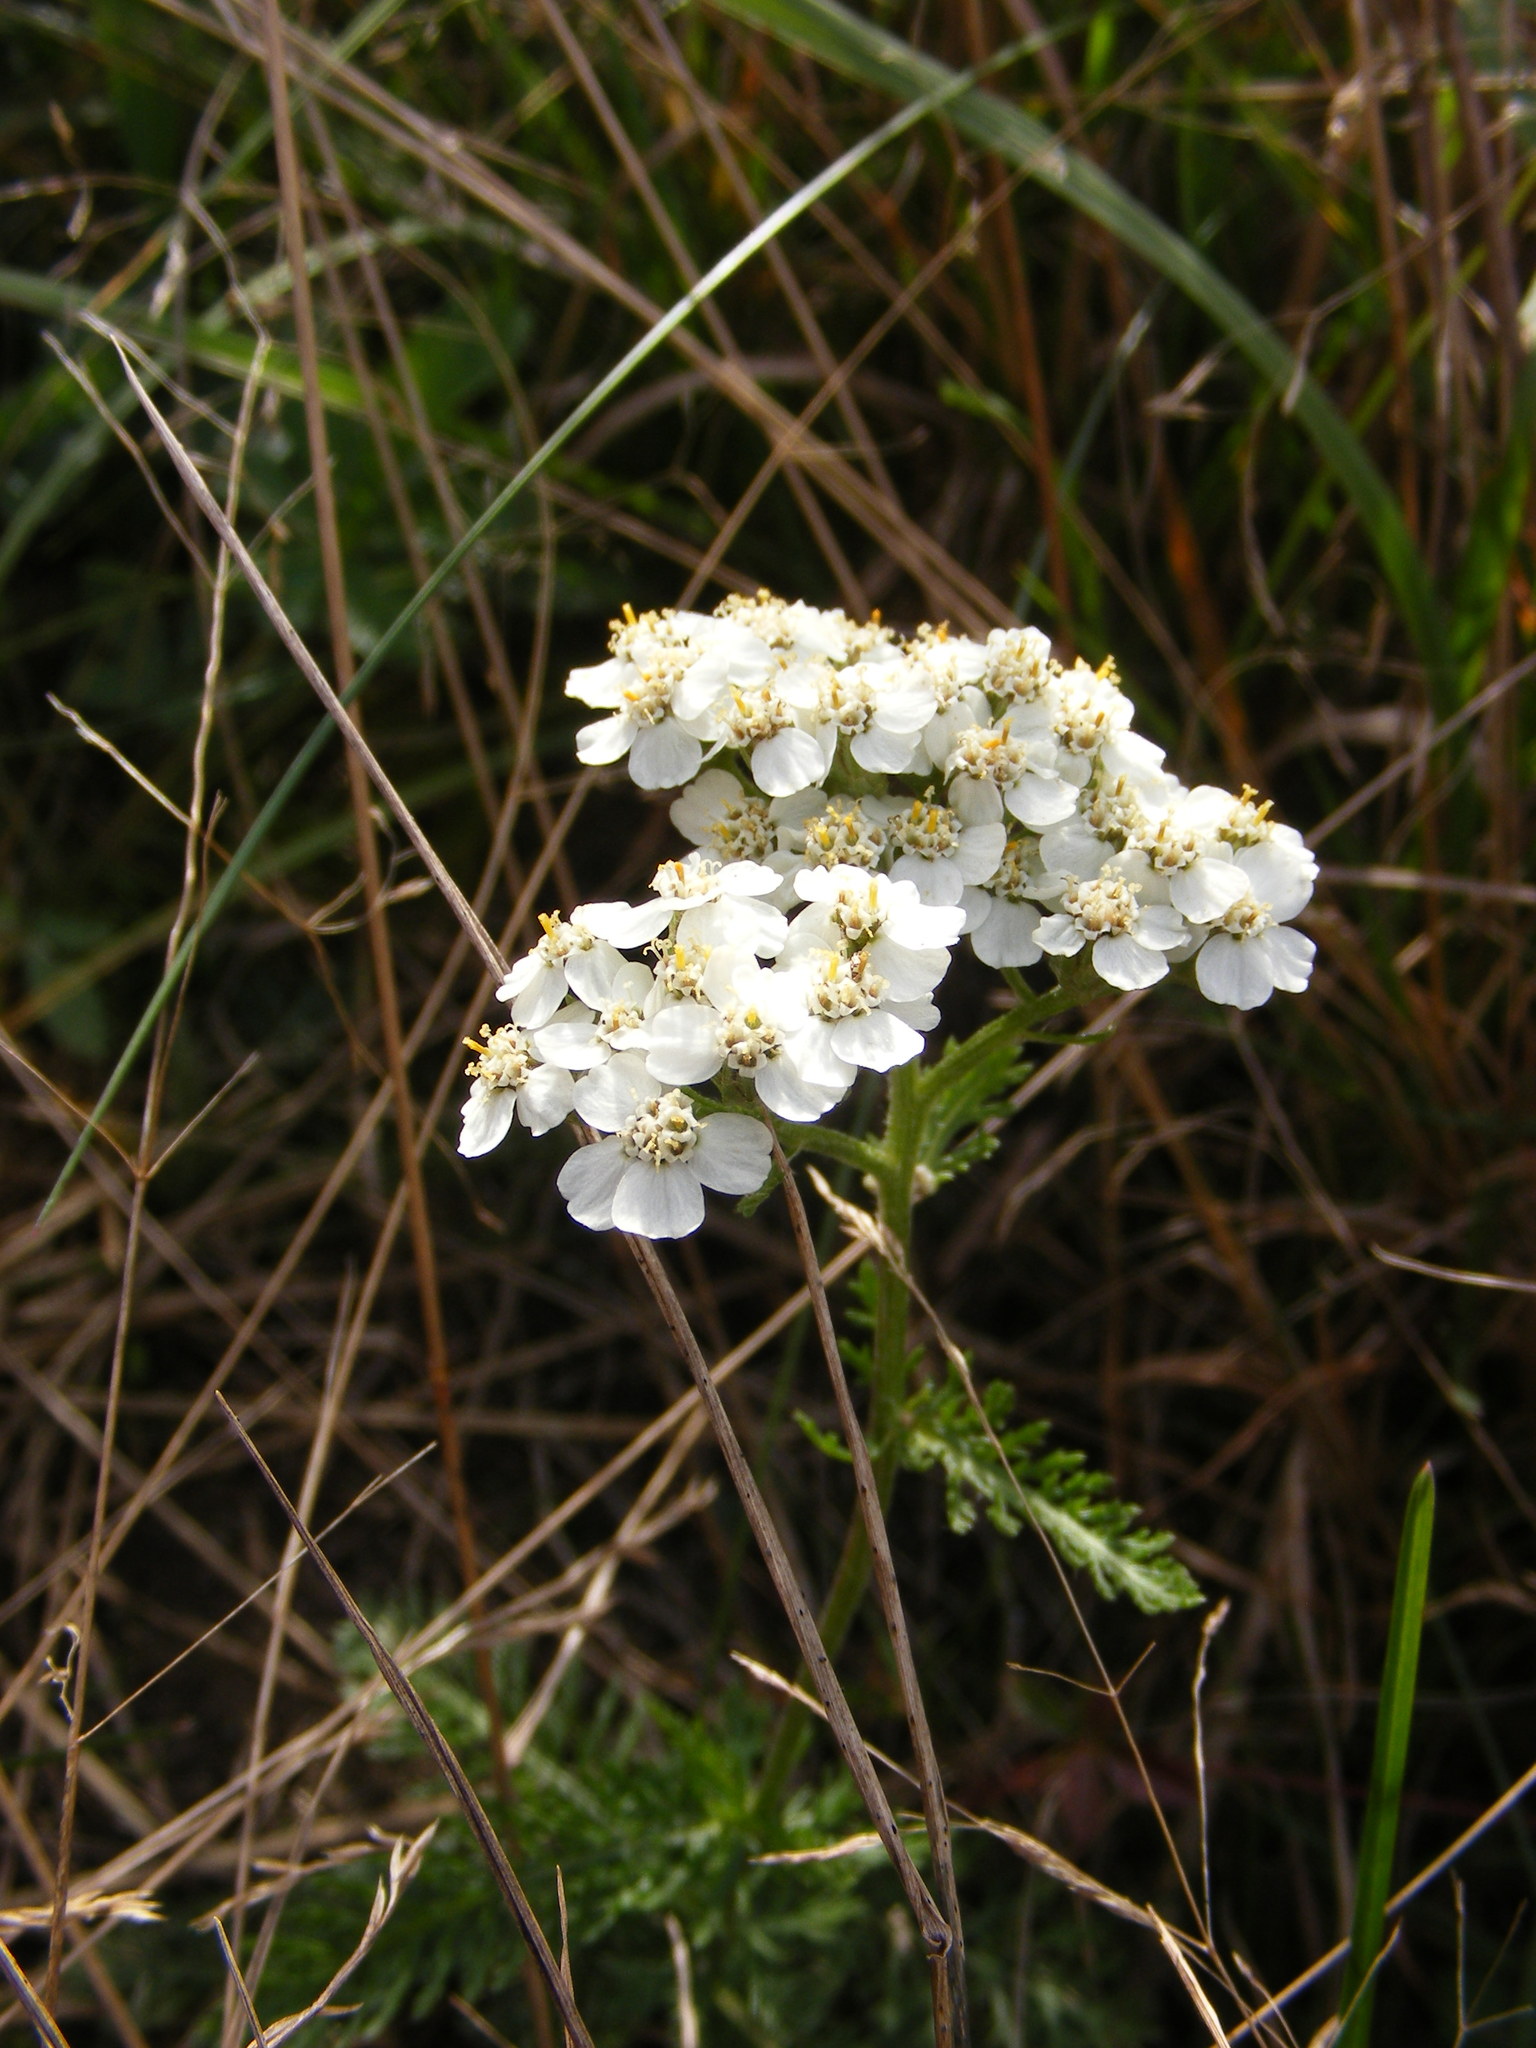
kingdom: Plantae
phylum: Tracheophyta
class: Magnoliopsida
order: Asterales
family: Asteraceae
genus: Achillea
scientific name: Achillea millefolium
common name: Yarrow
